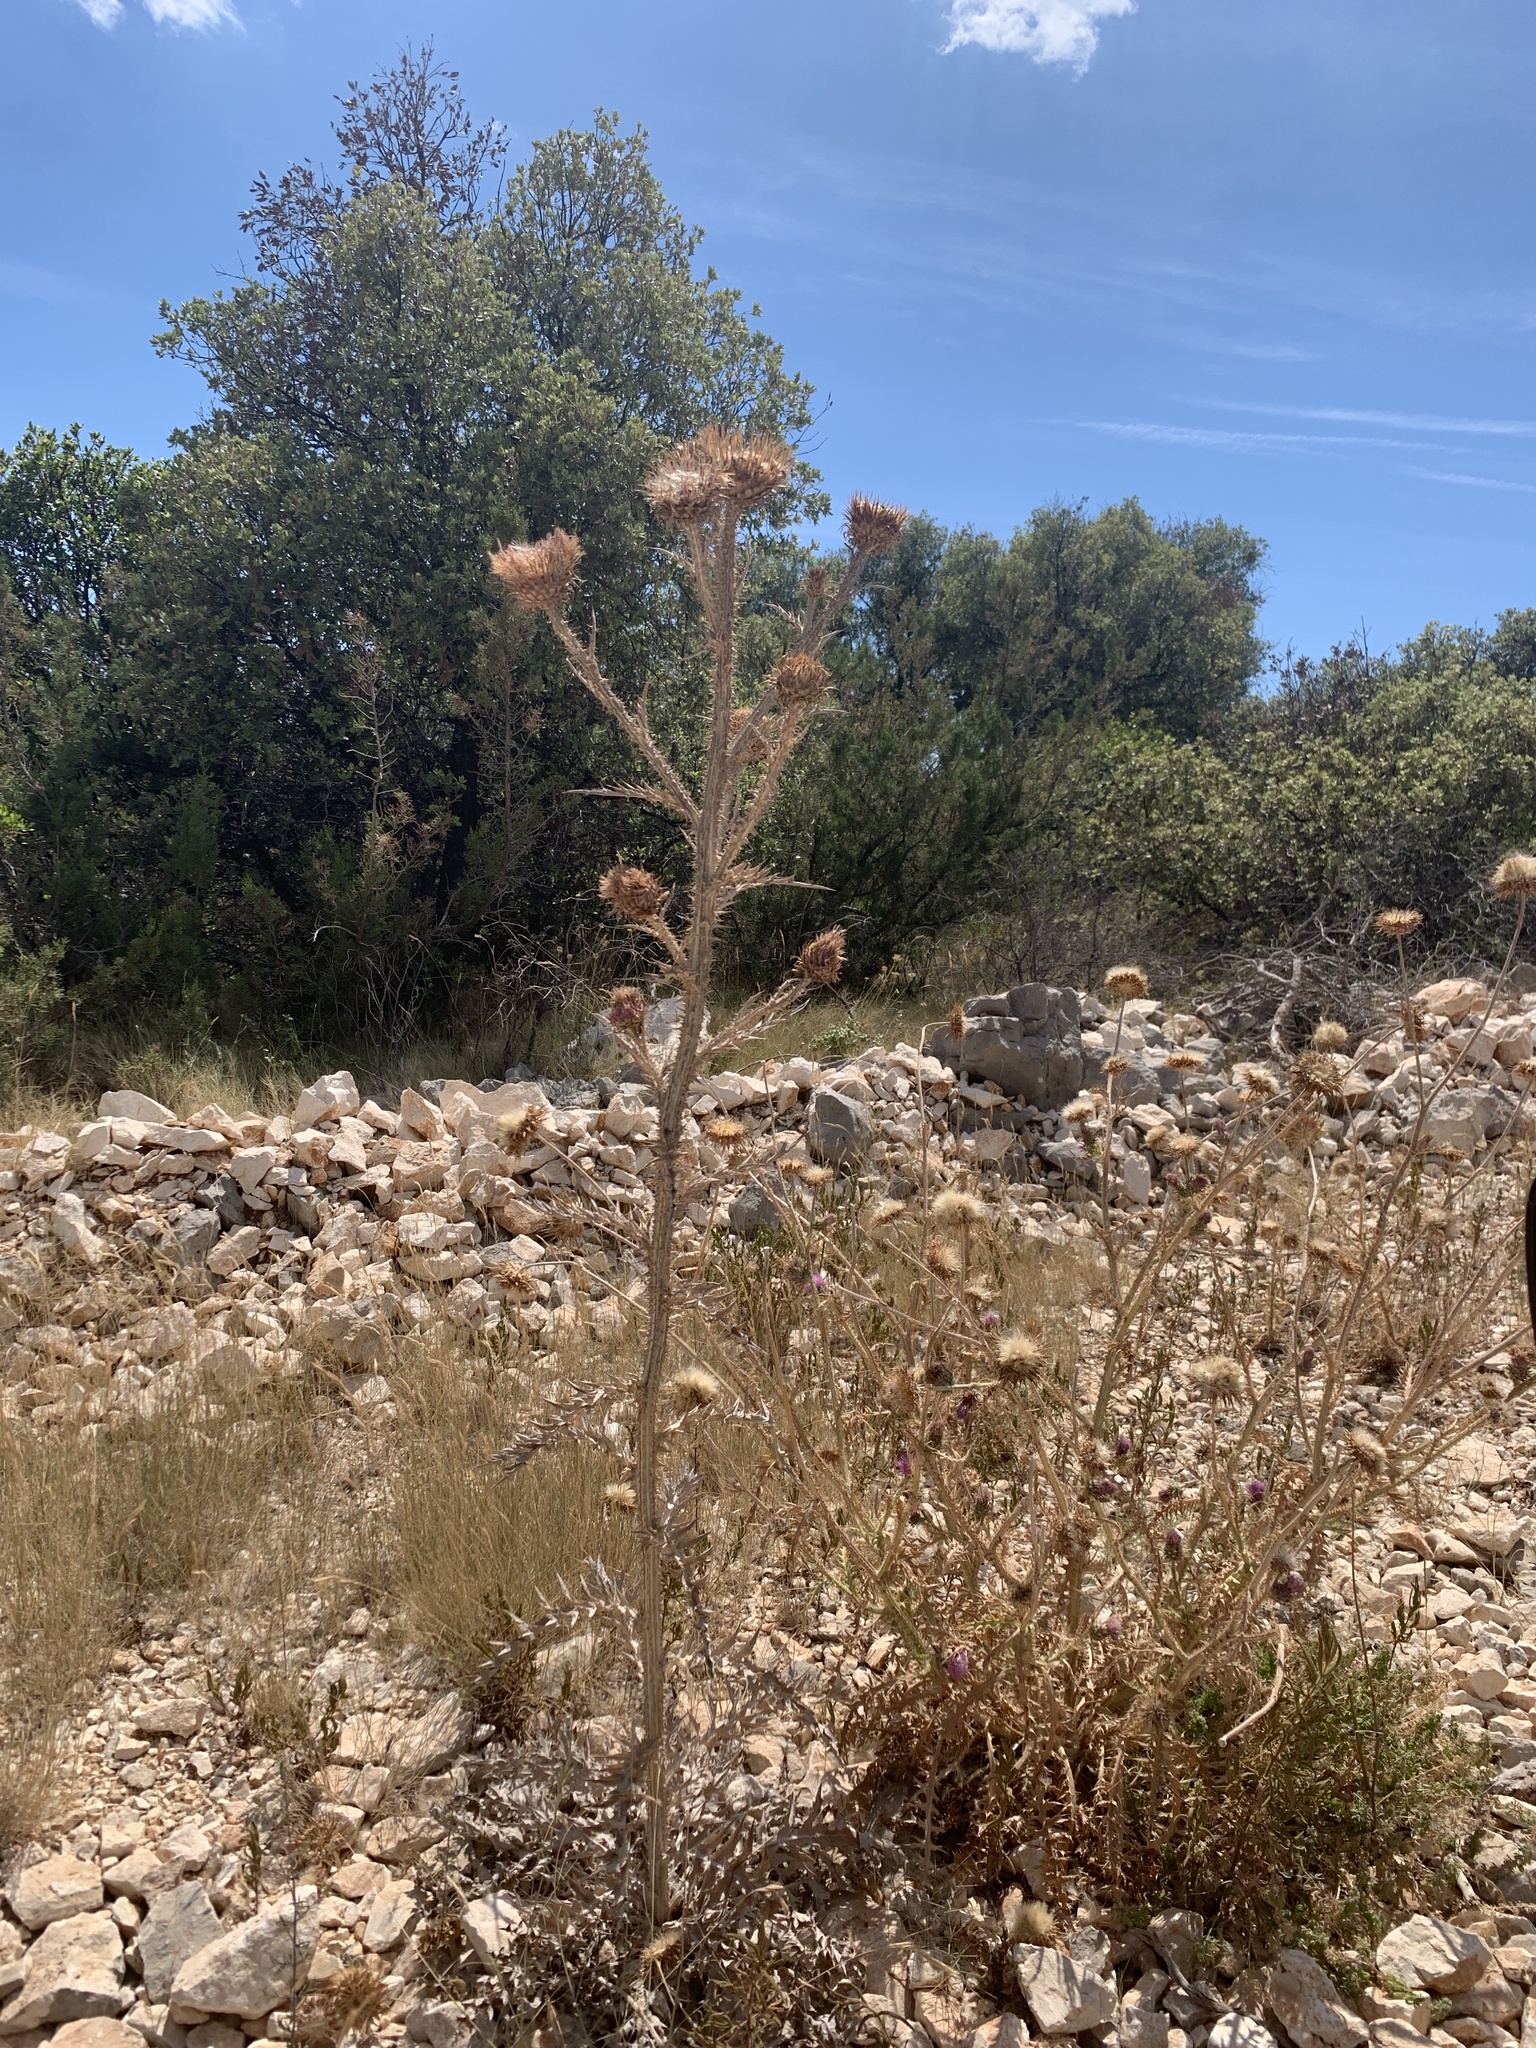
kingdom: Plantae
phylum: Tracheophyta
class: Magnoliopsida
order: Asterales
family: Asteraceae
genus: Onopordum
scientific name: Onopordum illyricum
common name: Illyrian thistle
